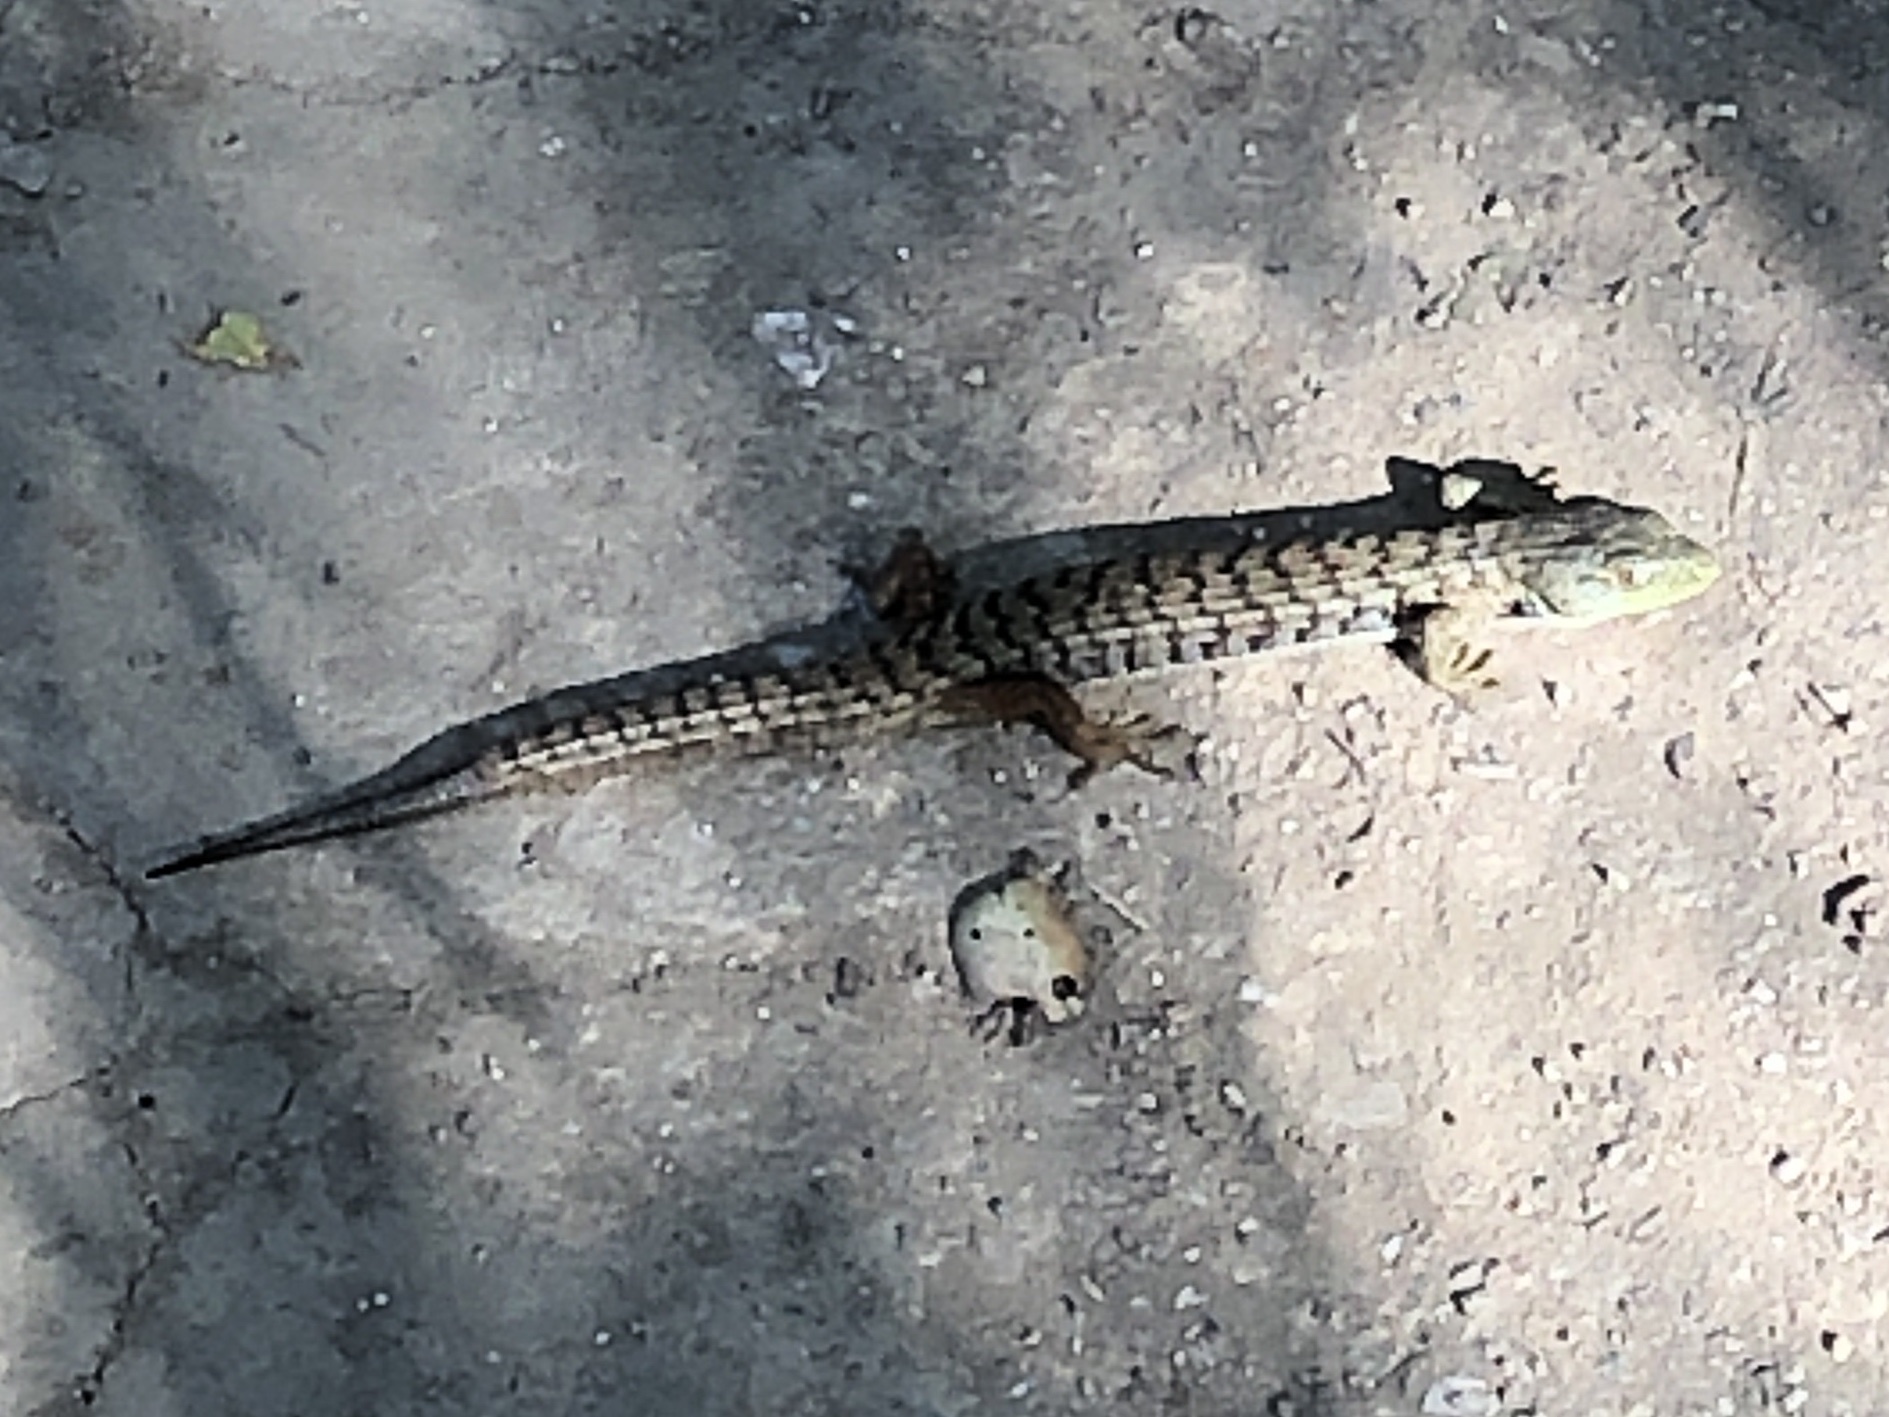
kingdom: Animalia
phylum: Chordata
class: Squamata
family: Anguidae
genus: Elgaria
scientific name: Elgaria multicarinata
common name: Southern alligator lizard
